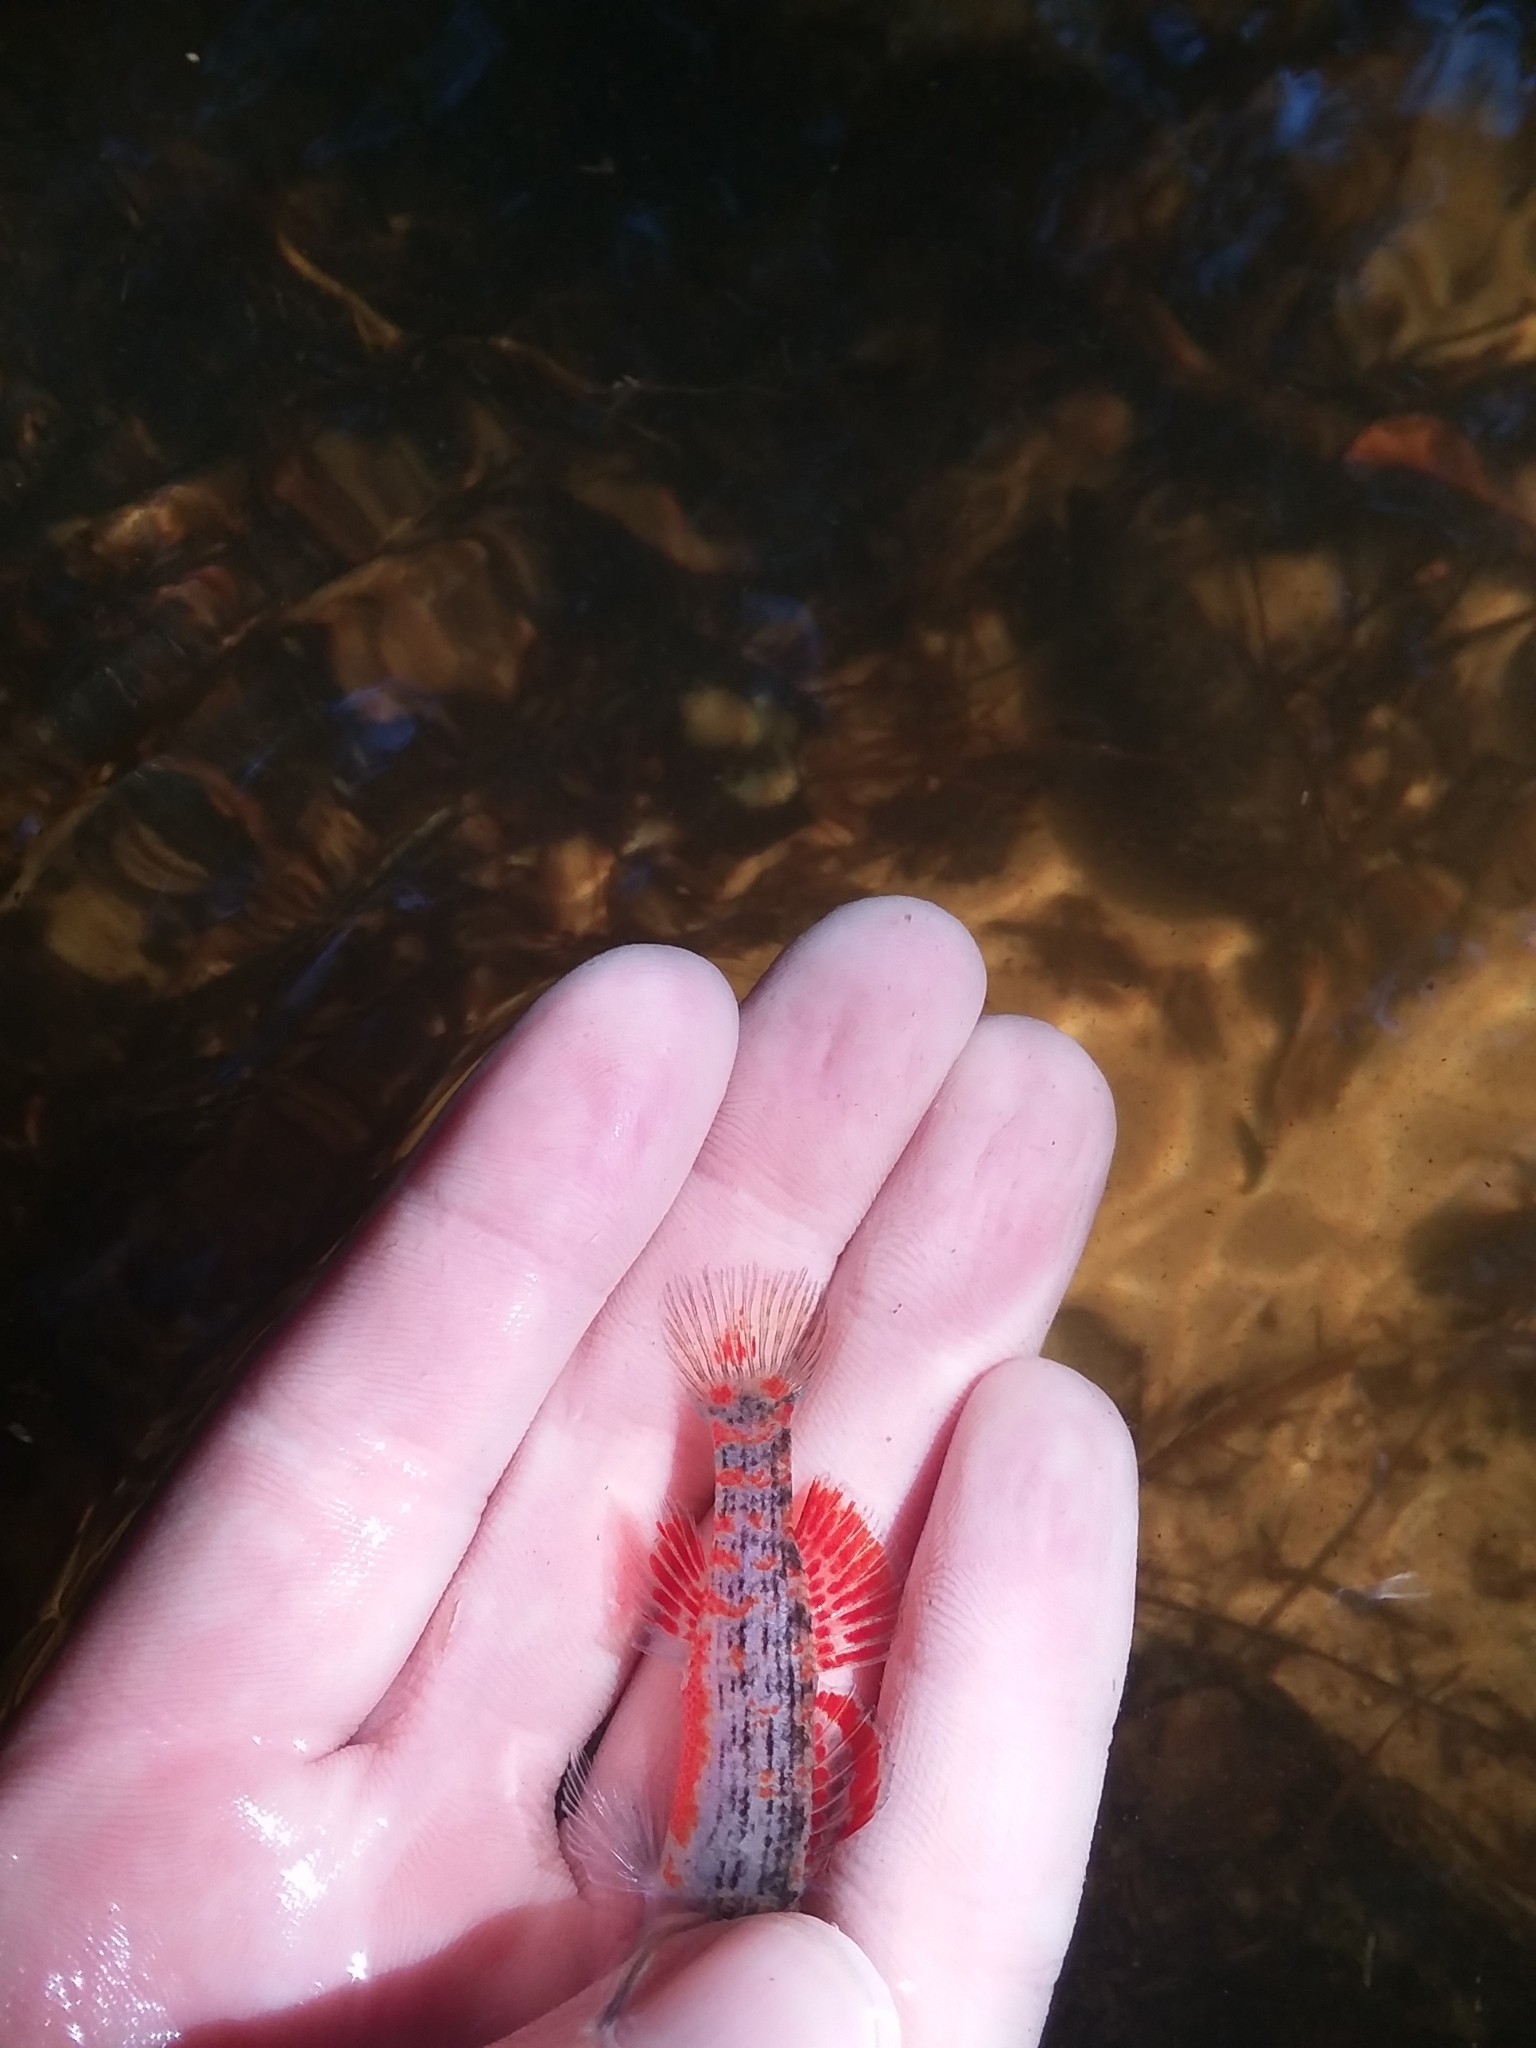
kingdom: Animalia
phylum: Chordata
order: Perciformes
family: Percidae
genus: Etheostoma
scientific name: Etheostoma swaini
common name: Gulf darter
